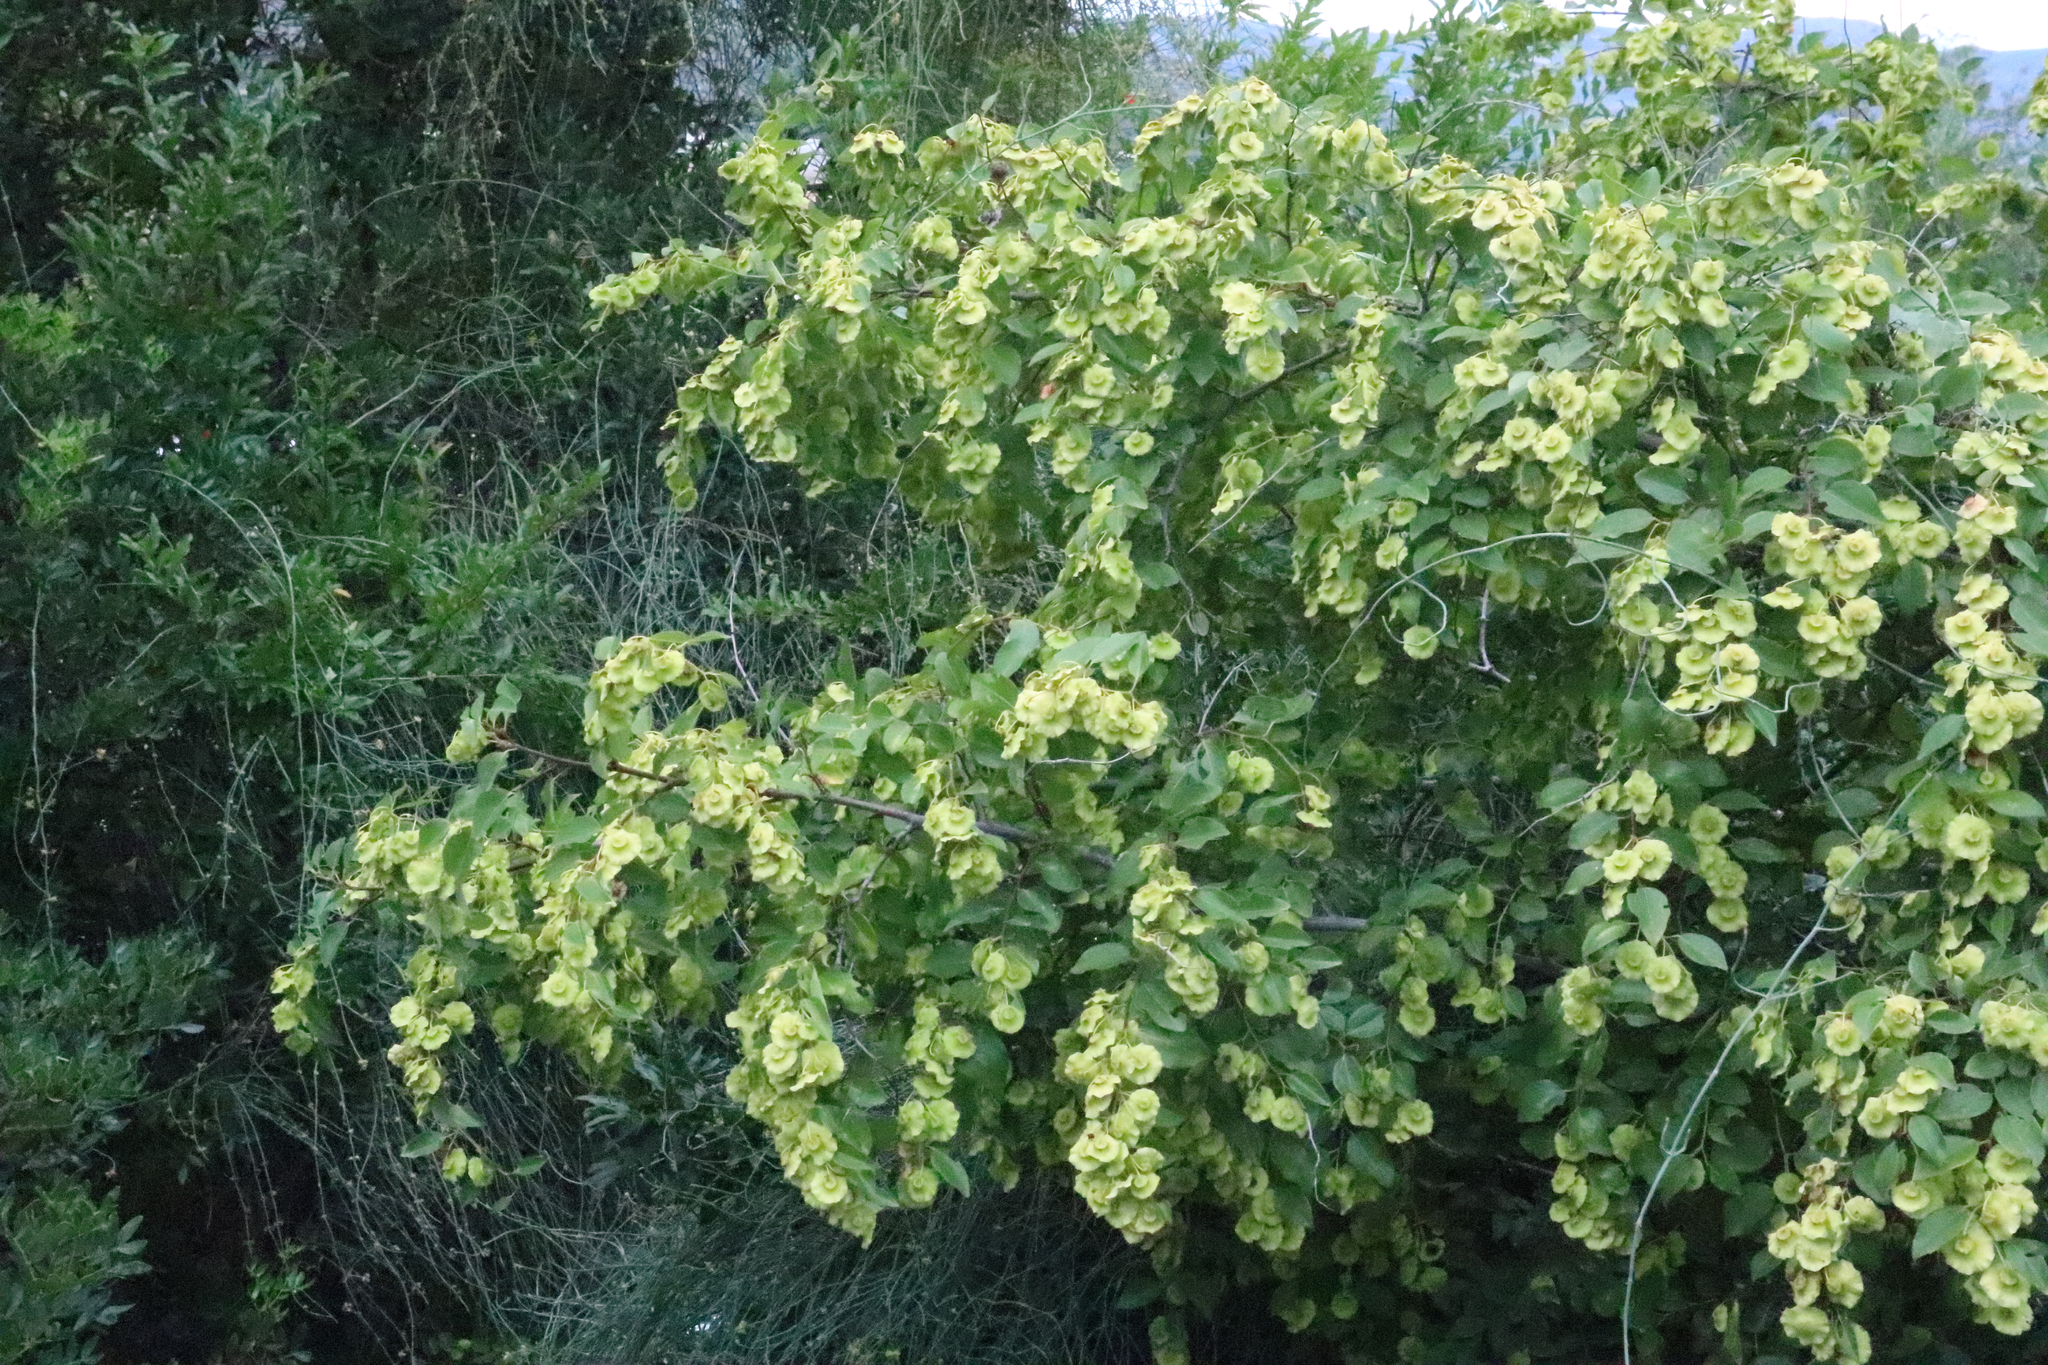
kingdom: Plantae
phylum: Tracheophyta
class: Magnoliopsida
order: Rosales
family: Rhamnaceae
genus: Paliurus
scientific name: Paliurus spina-christi
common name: Jeruselem thorn
